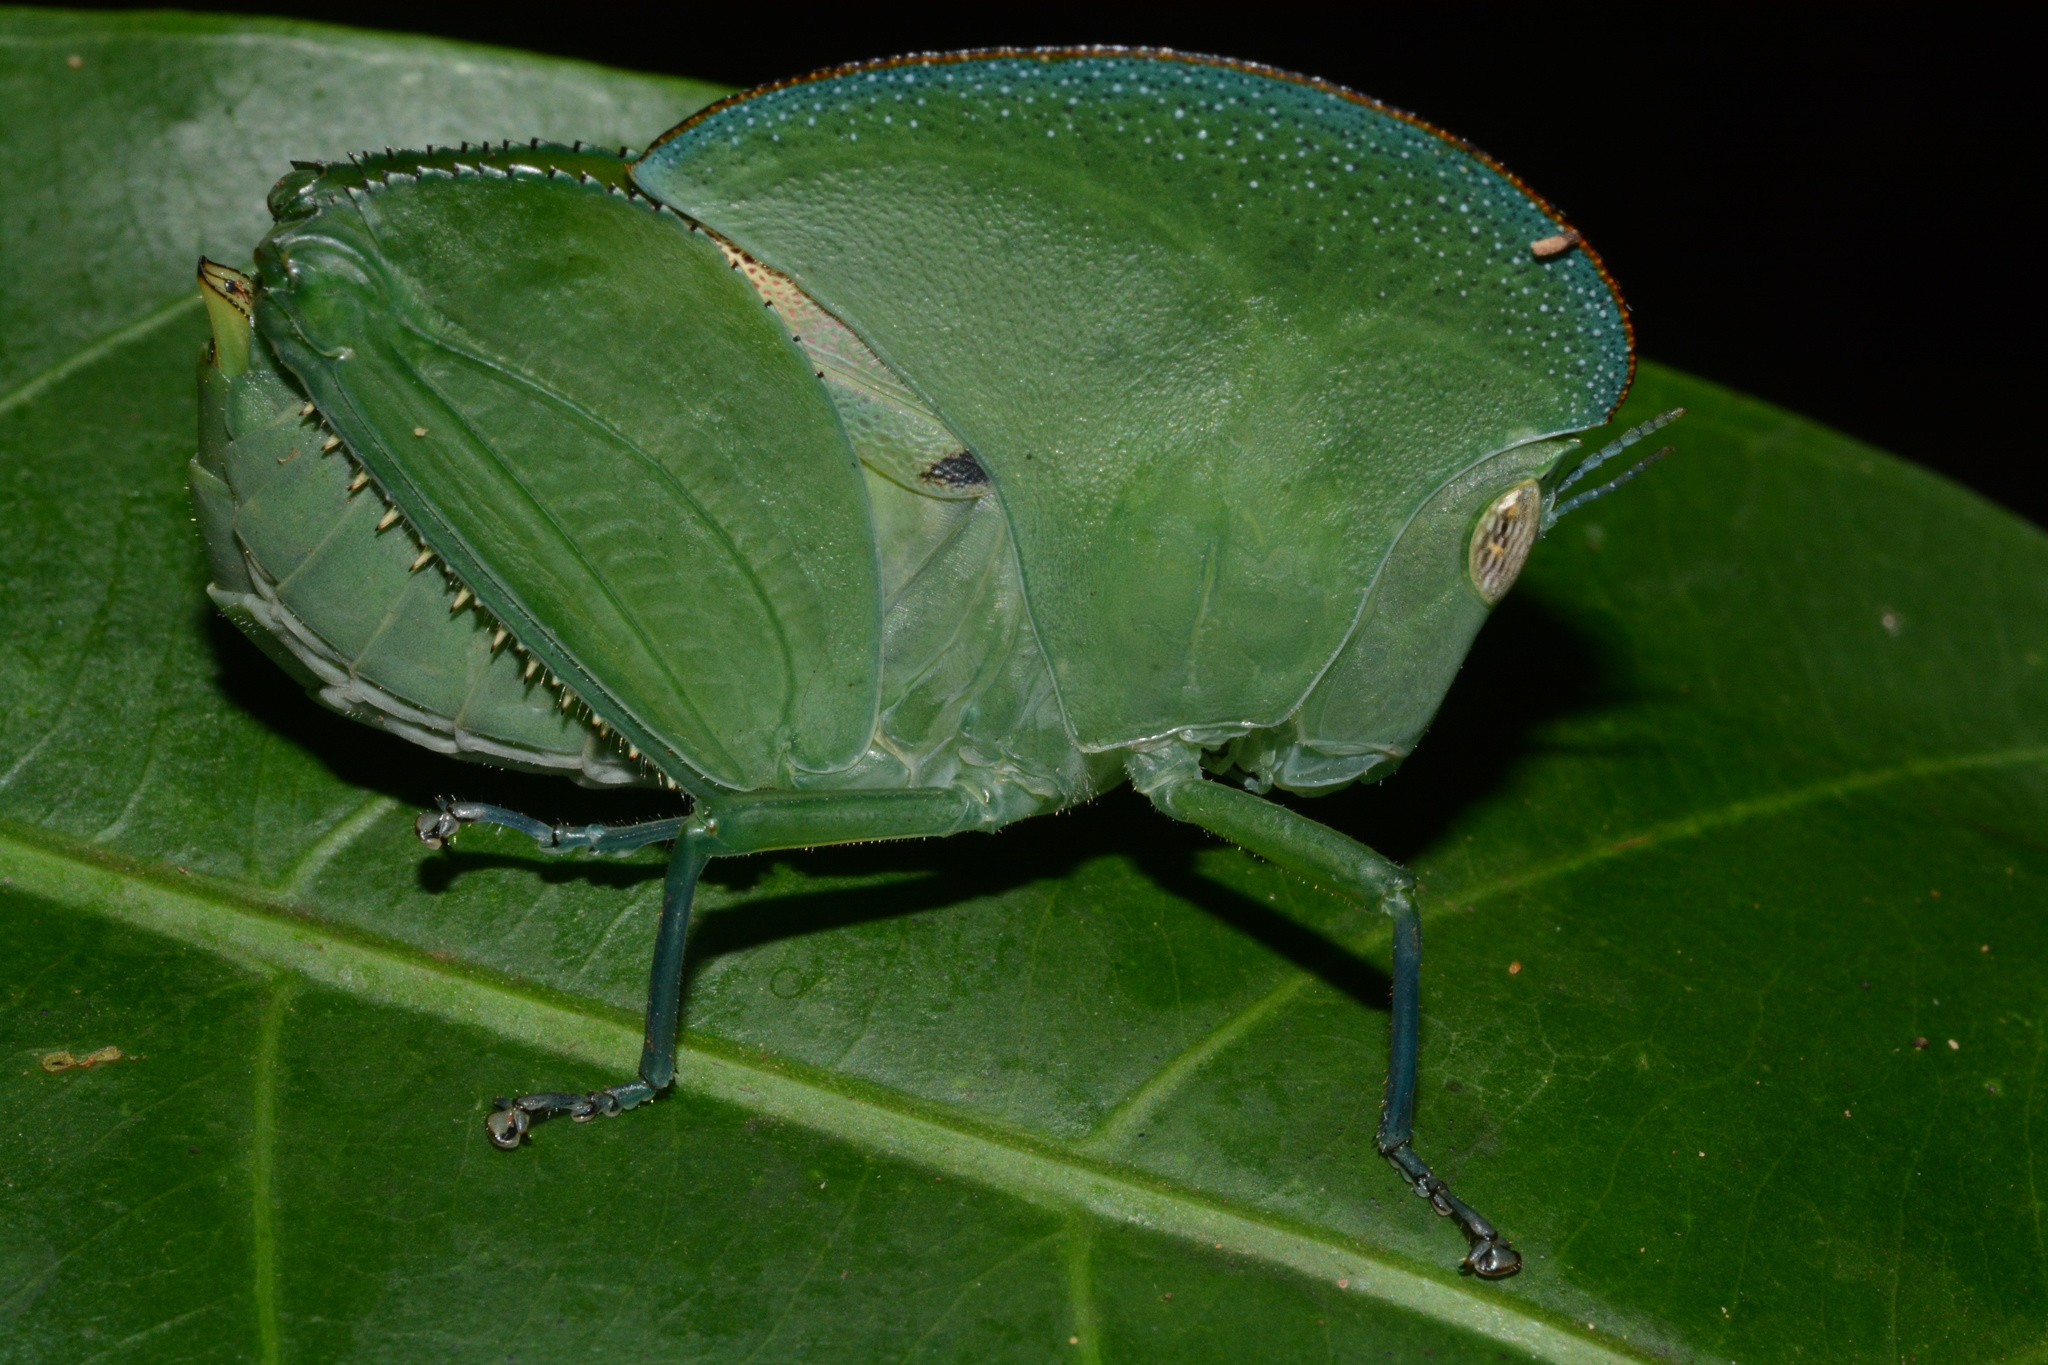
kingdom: Animalia
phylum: Arthropoda
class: Insecta
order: Orthoptera
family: Thericleidae
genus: Plagiotriptus
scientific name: Plagiotriptus carli
